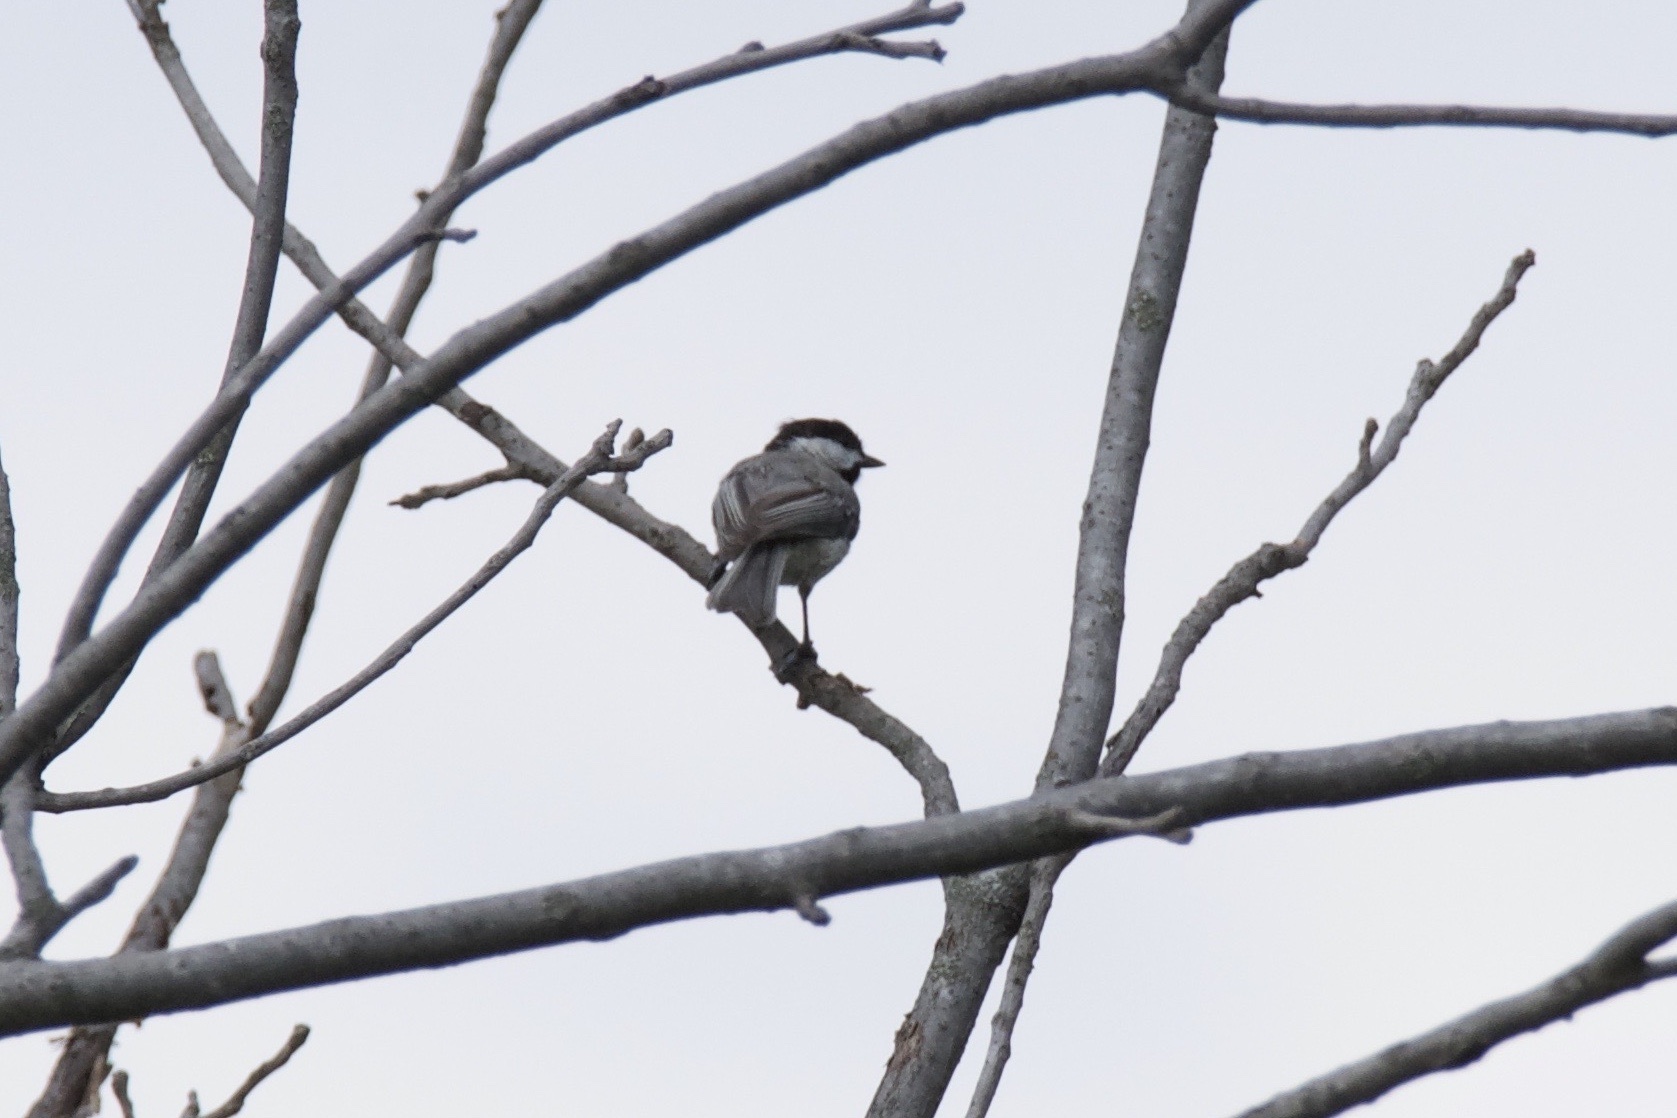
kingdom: Animalia
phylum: Chordata
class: Aves
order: Passeriformes
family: Paridae
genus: Poecile
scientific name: Poecile carolinensis
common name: Carolina chickadee
